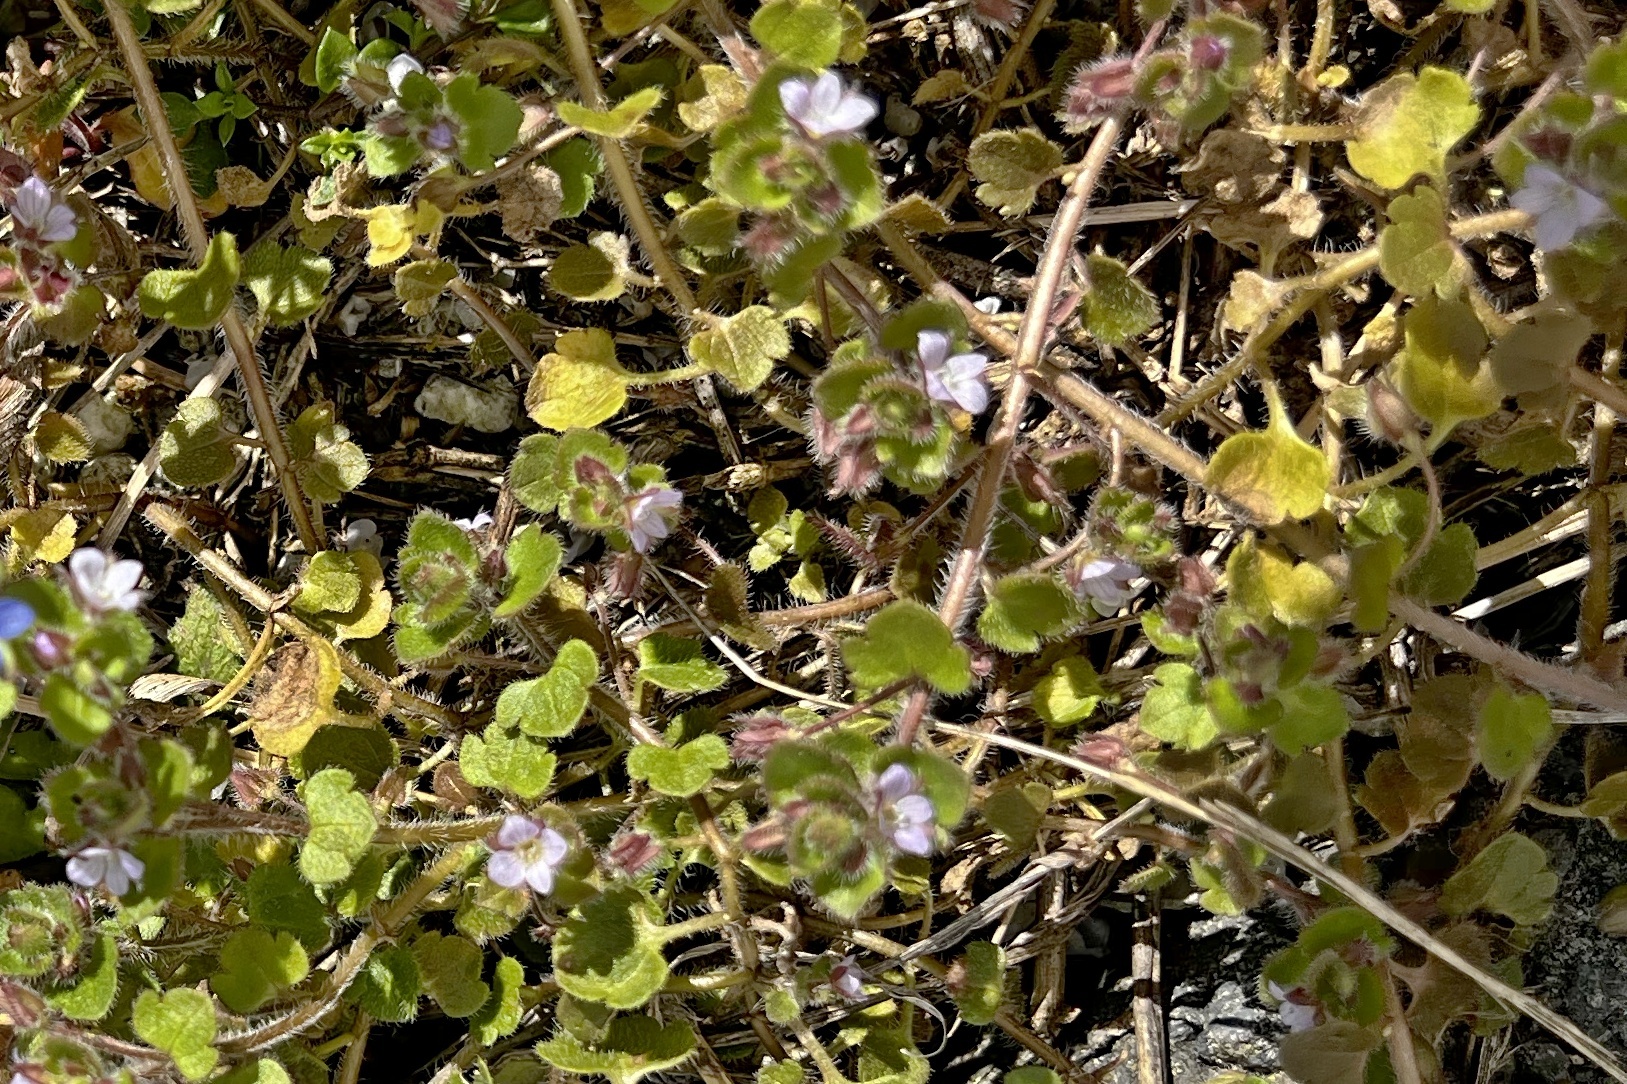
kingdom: Plantae
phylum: Tracheophyta
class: Magnoliopsida
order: Lamiales
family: Plantaginaceae
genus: Veronica
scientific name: Veronica sublobata
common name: False ivy-leaved speedwell
